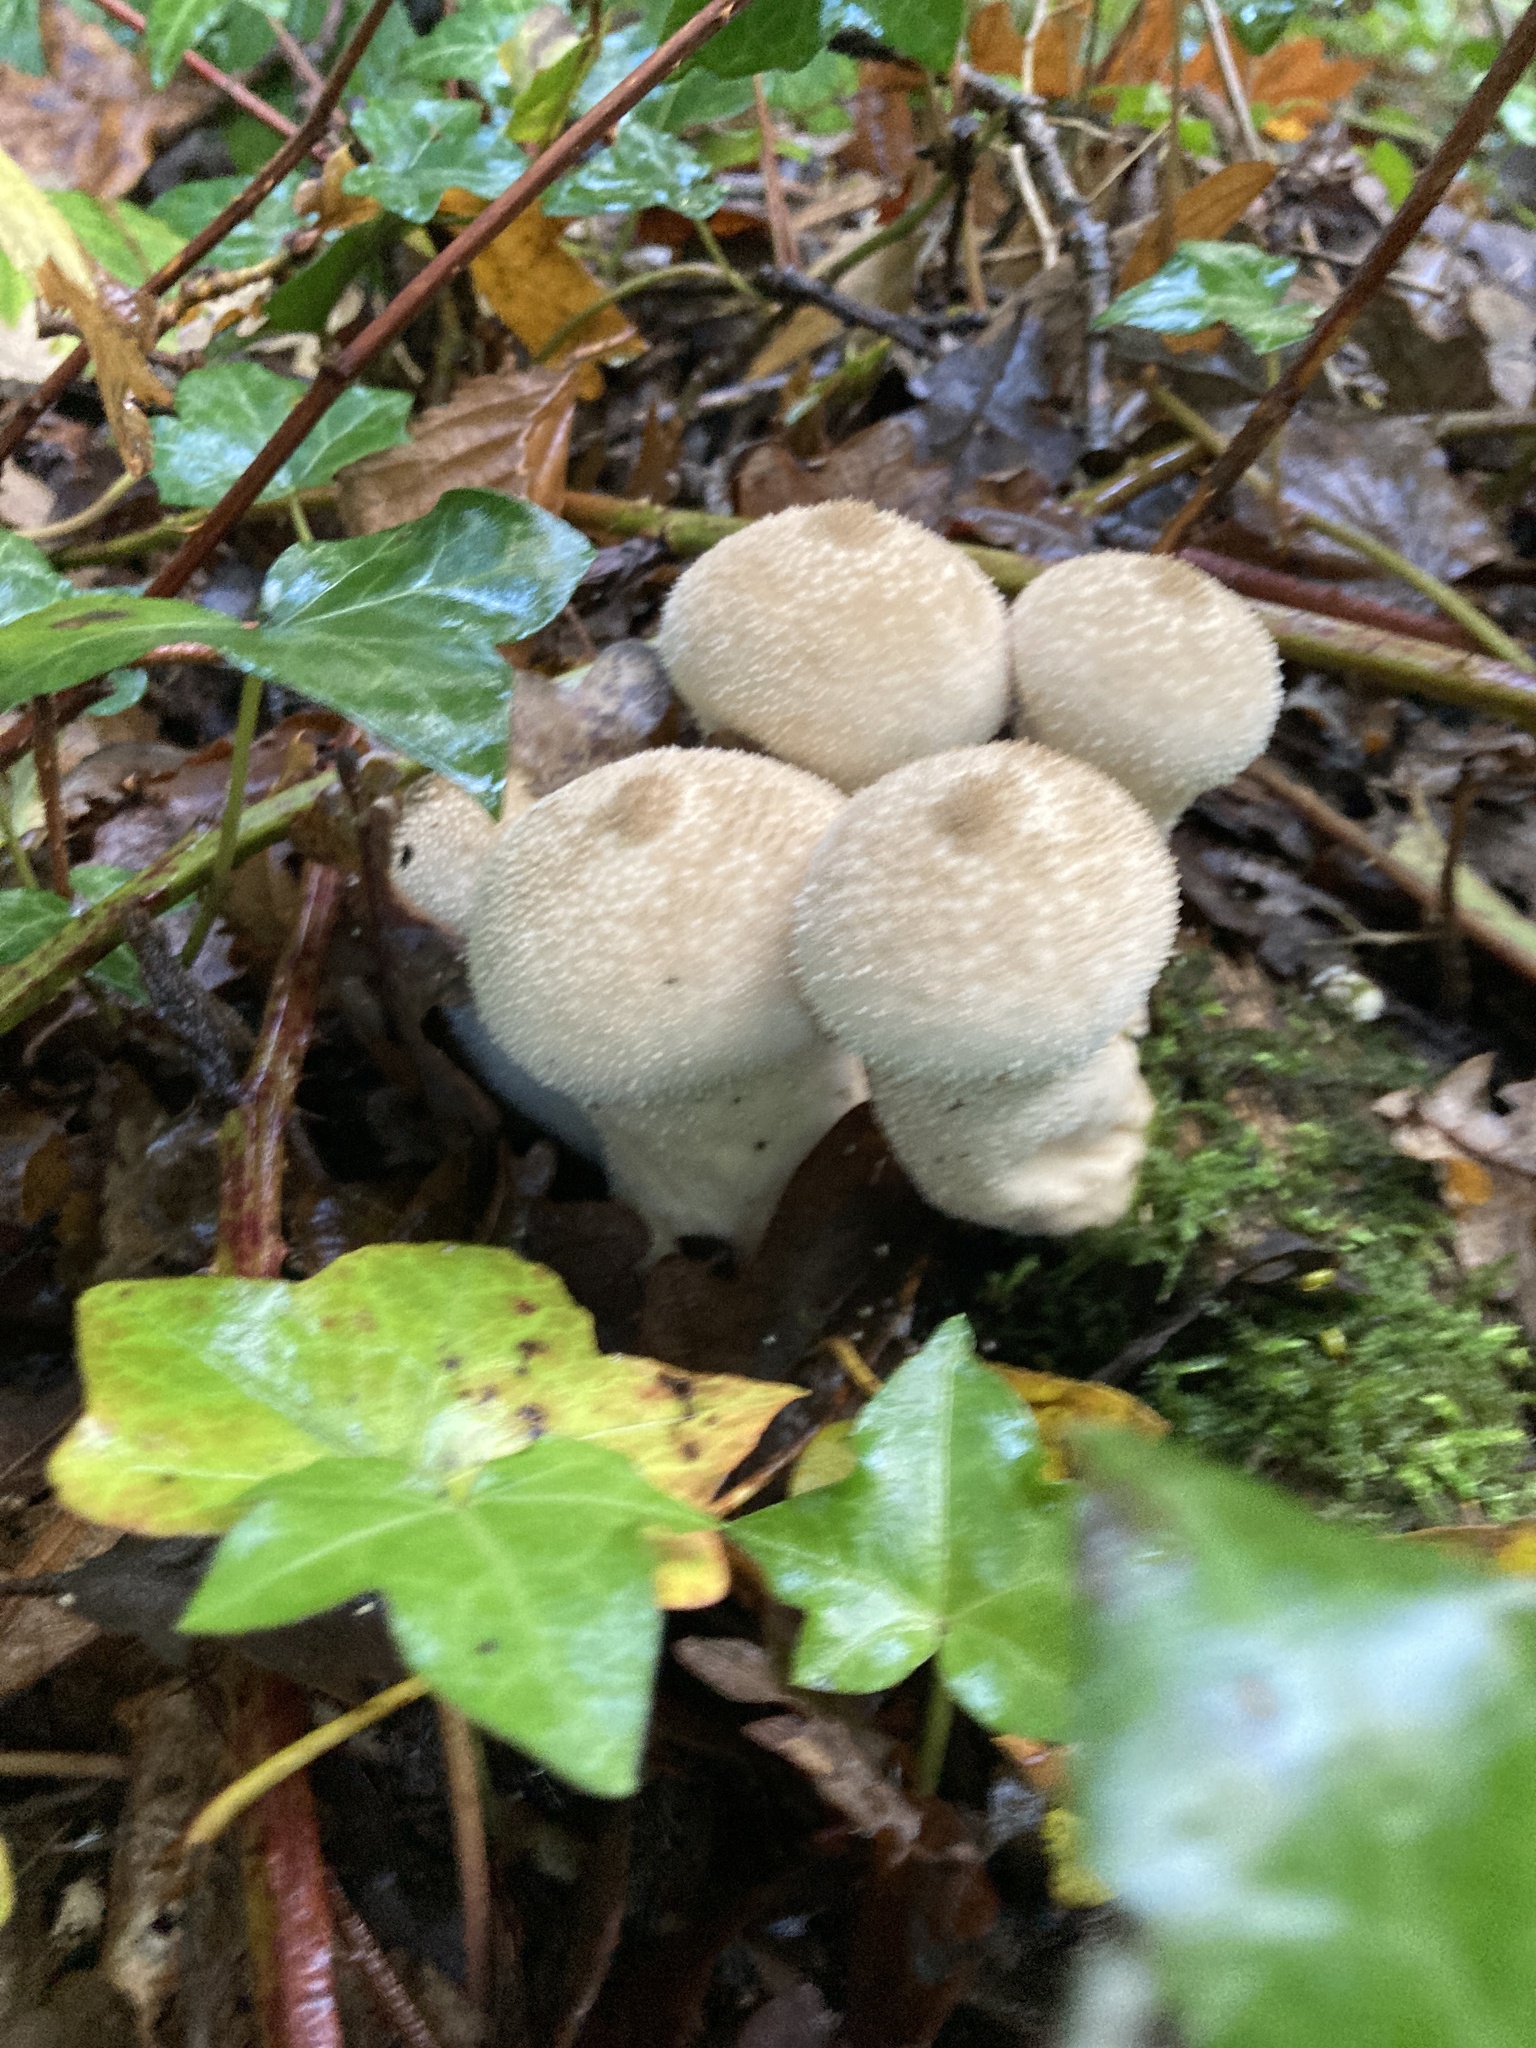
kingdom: Fungi
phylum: Basidiomycota
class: Agaricomycetes
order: Agaricales
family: Lycoperdaceae
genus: Lycoperdon
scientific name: Lycoperdon perlatum
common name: Common puffball
